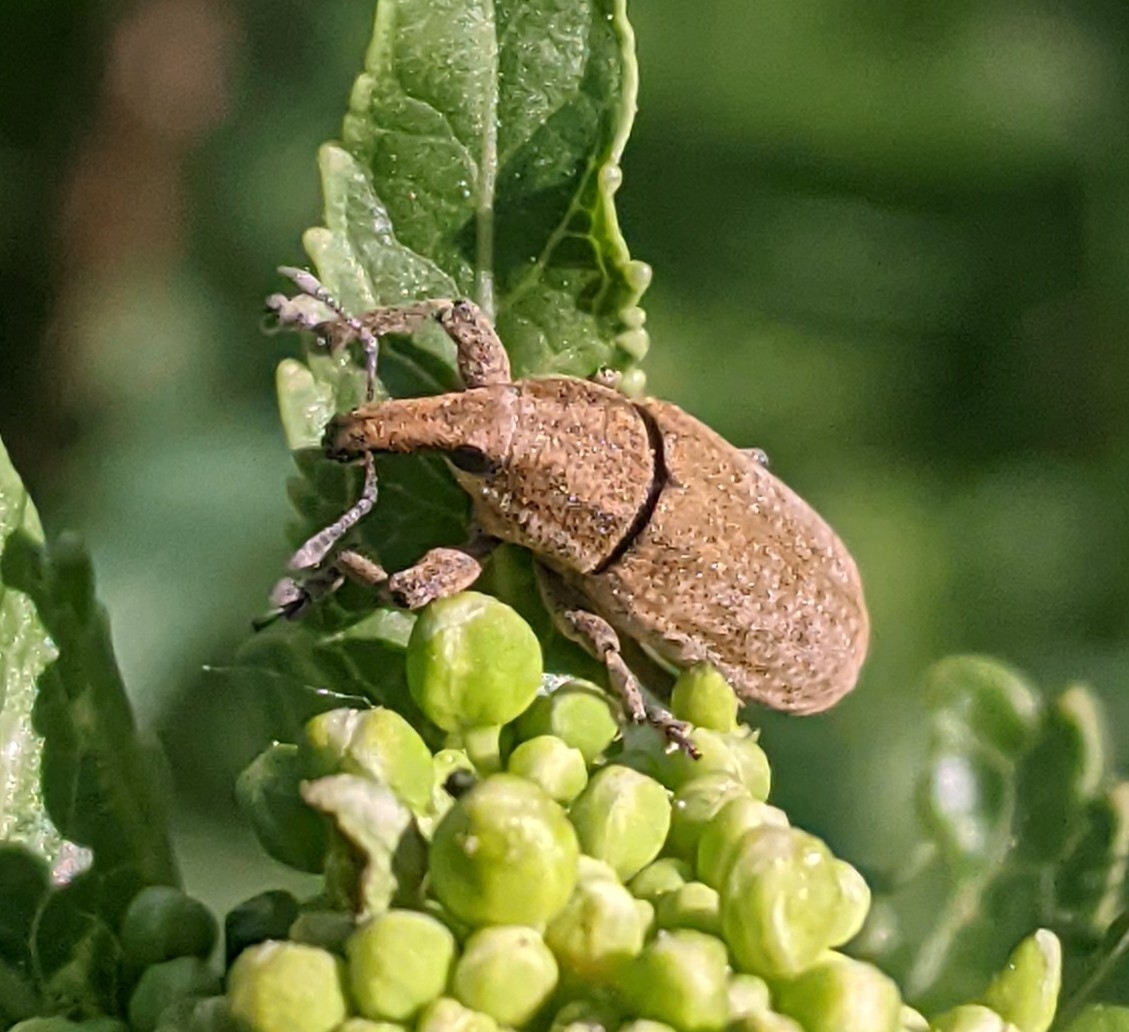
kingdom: Animalia
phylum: Arthropoda
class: Insecta
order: Coleoptera
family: Curculionidae
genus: Lixus
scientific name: Lixus myagri
